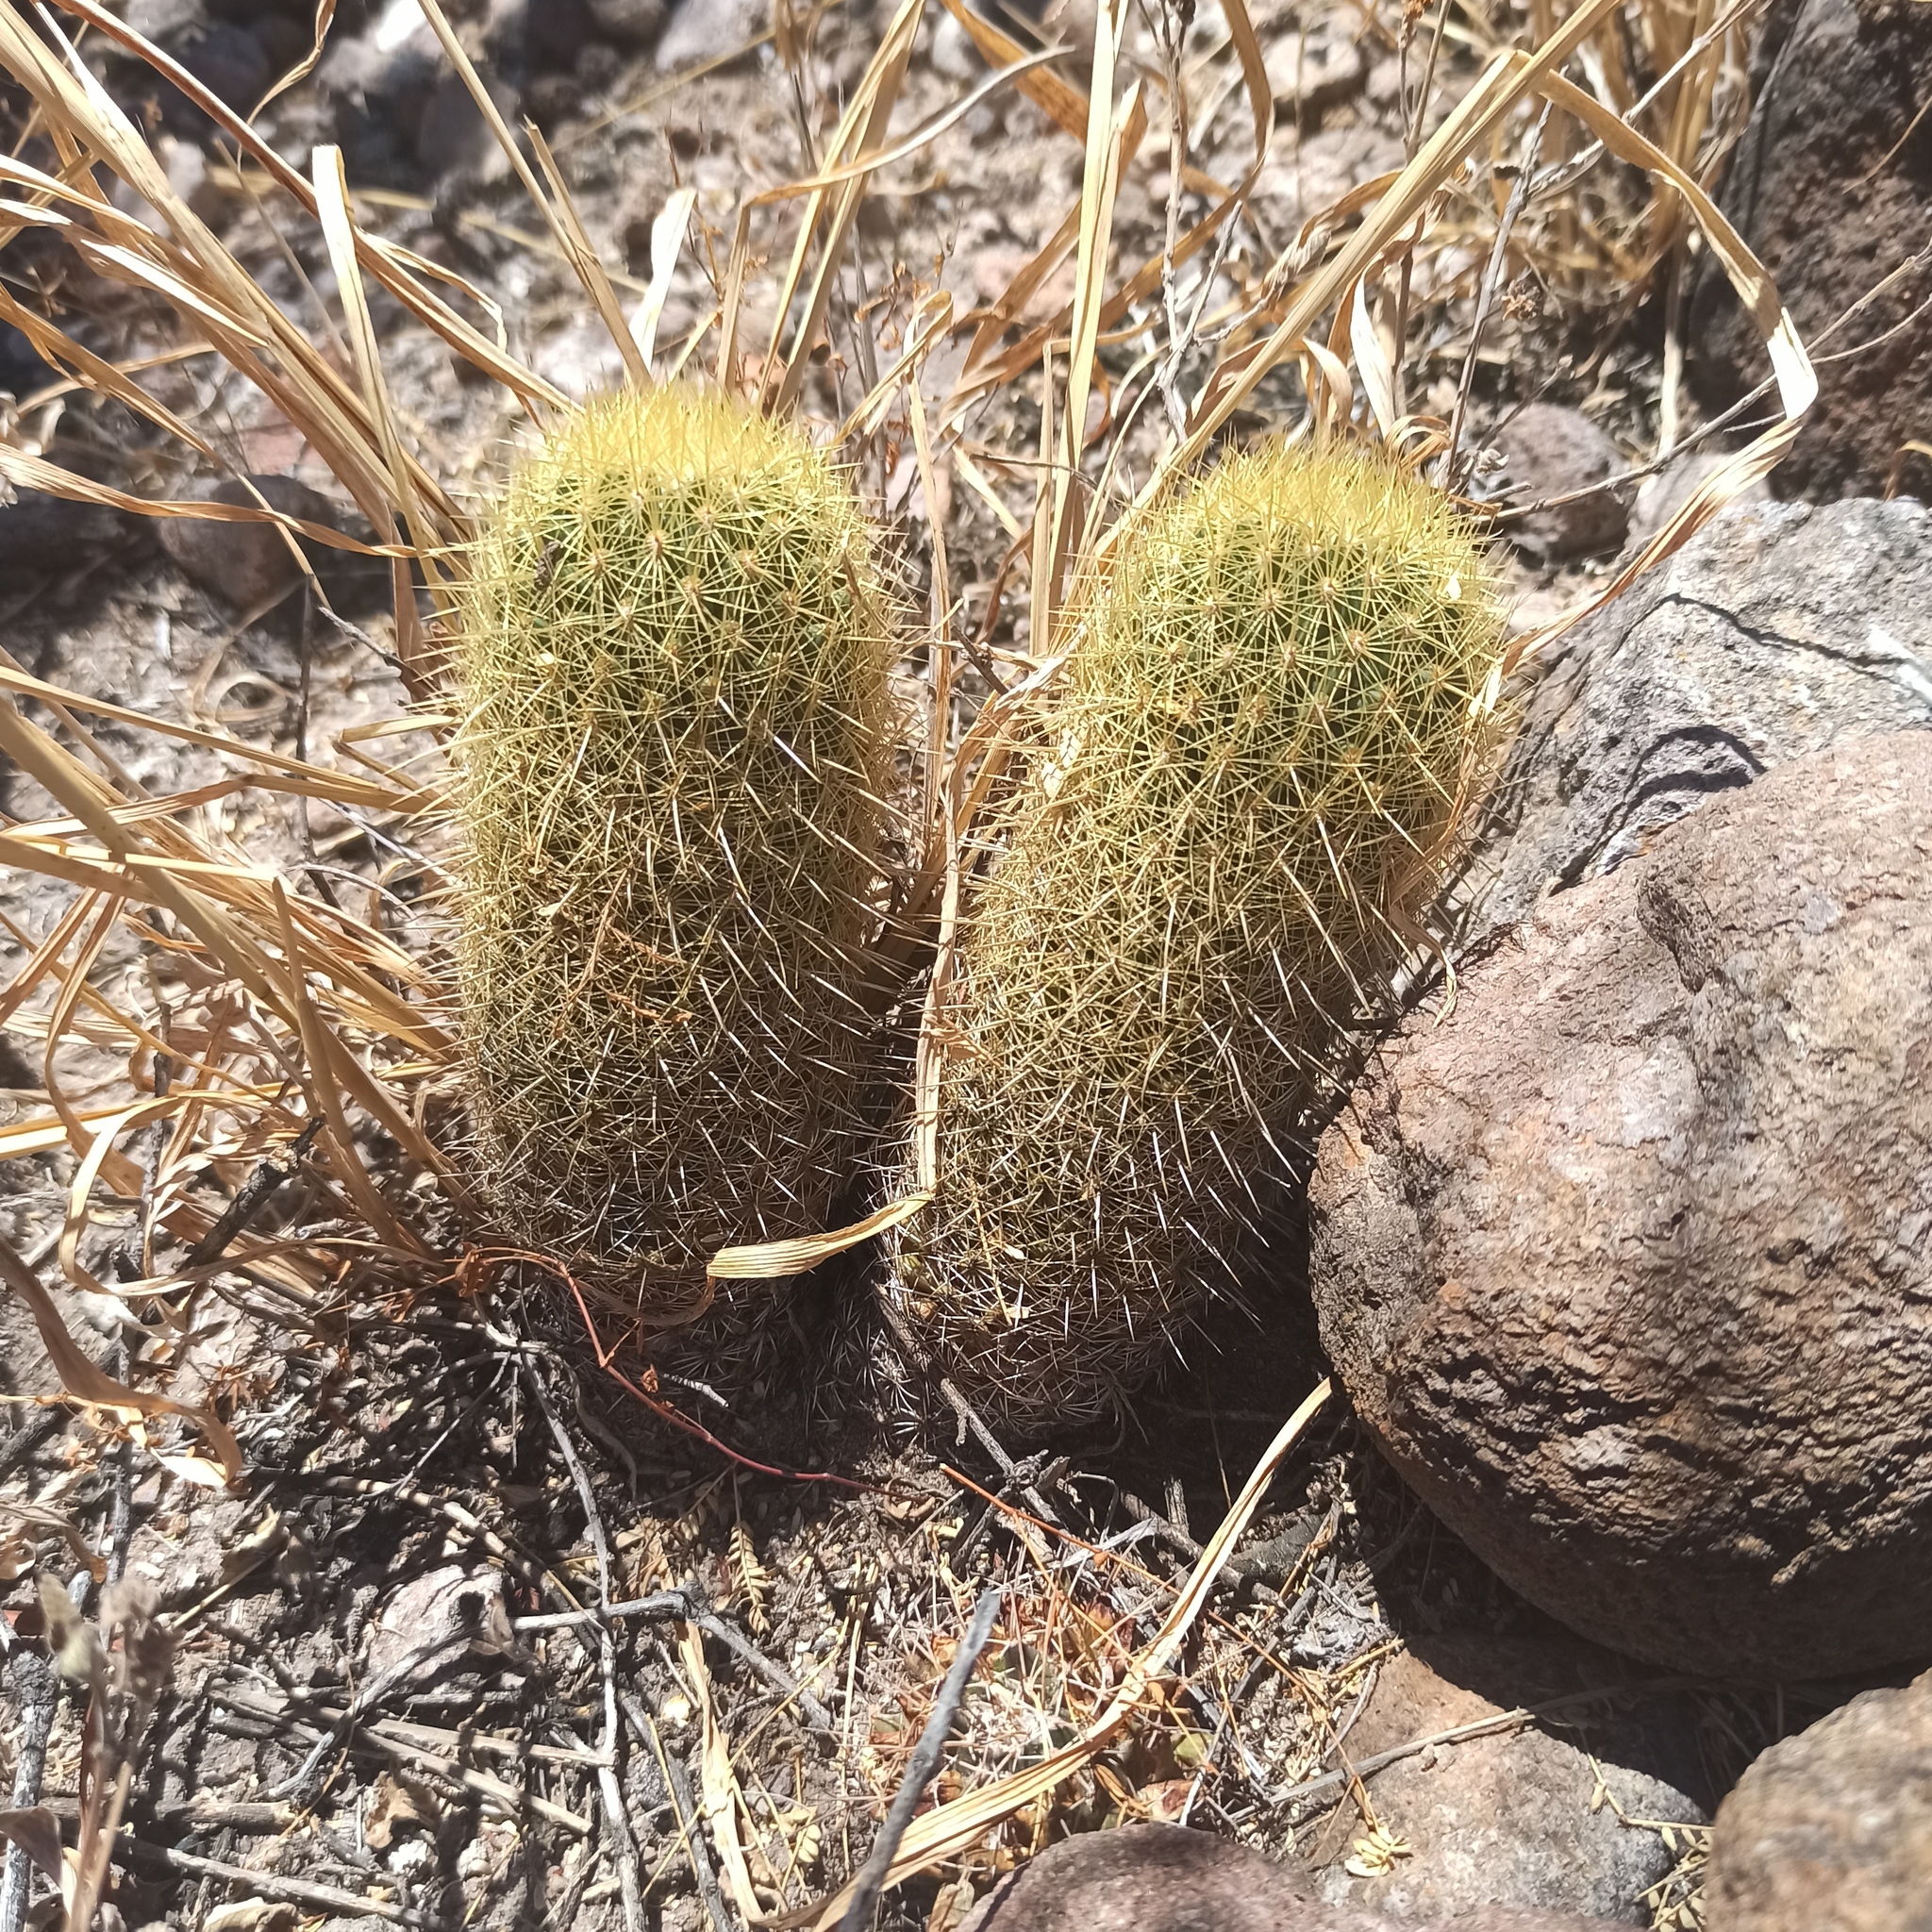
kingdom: Plantae
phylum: Tracheophyta
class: Magnoliopsida
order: Caryophyllales
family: Cactaceae
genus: Coryphantha
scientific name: Coryphantha erecta
